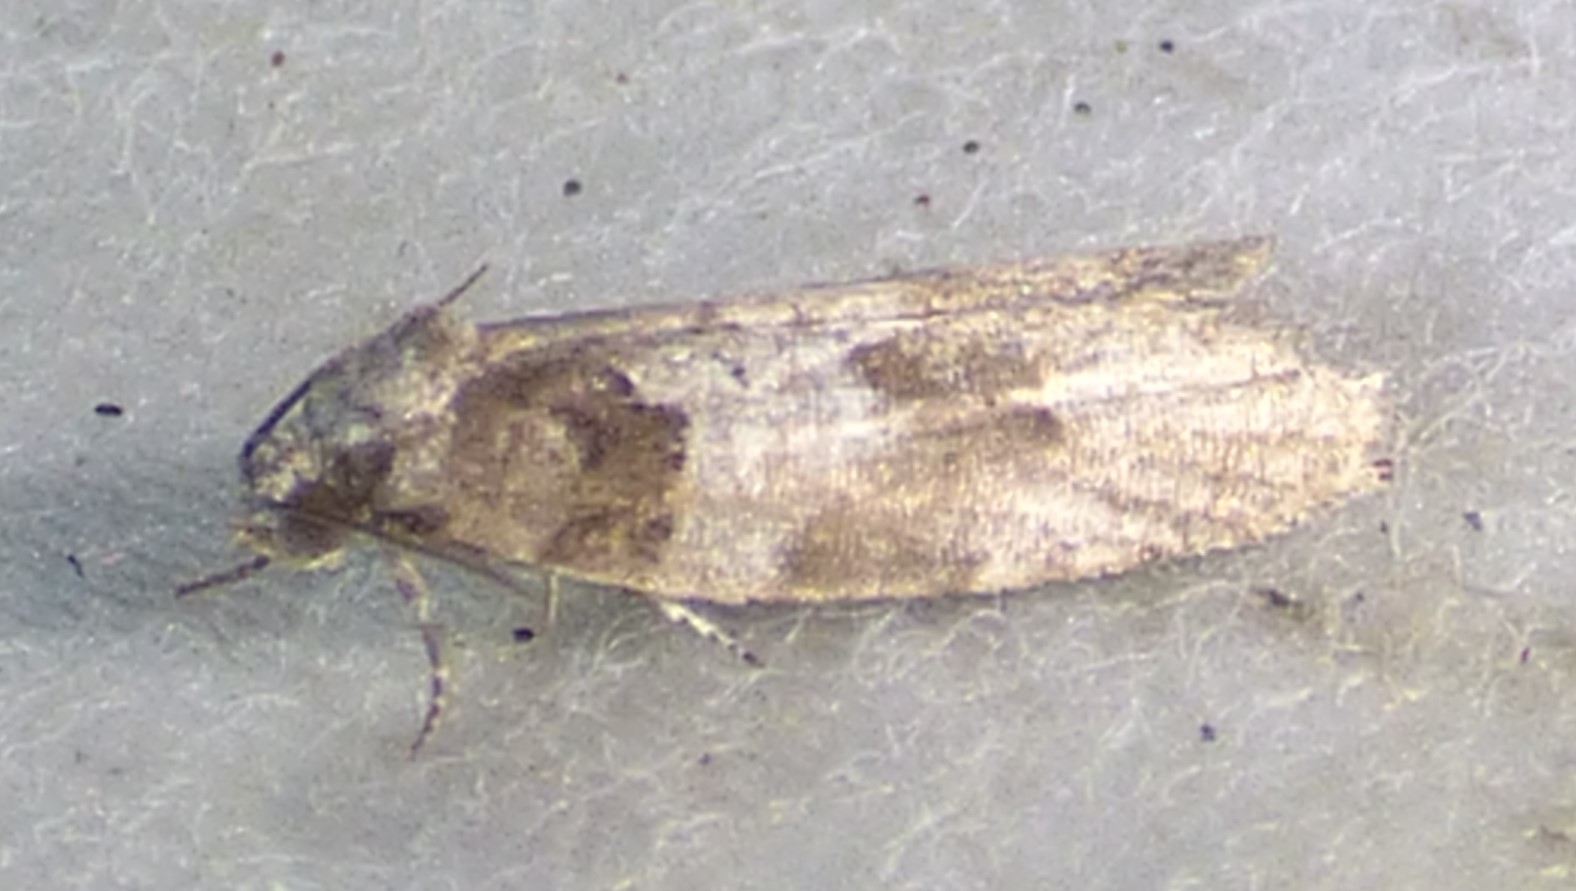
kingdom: Animalia
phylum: Arthropoda
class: Insecta
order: Lepidoptera
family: Tortricidae
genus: Decodes
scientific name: Decodes basiplagana
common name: Gray-marked tortricid
